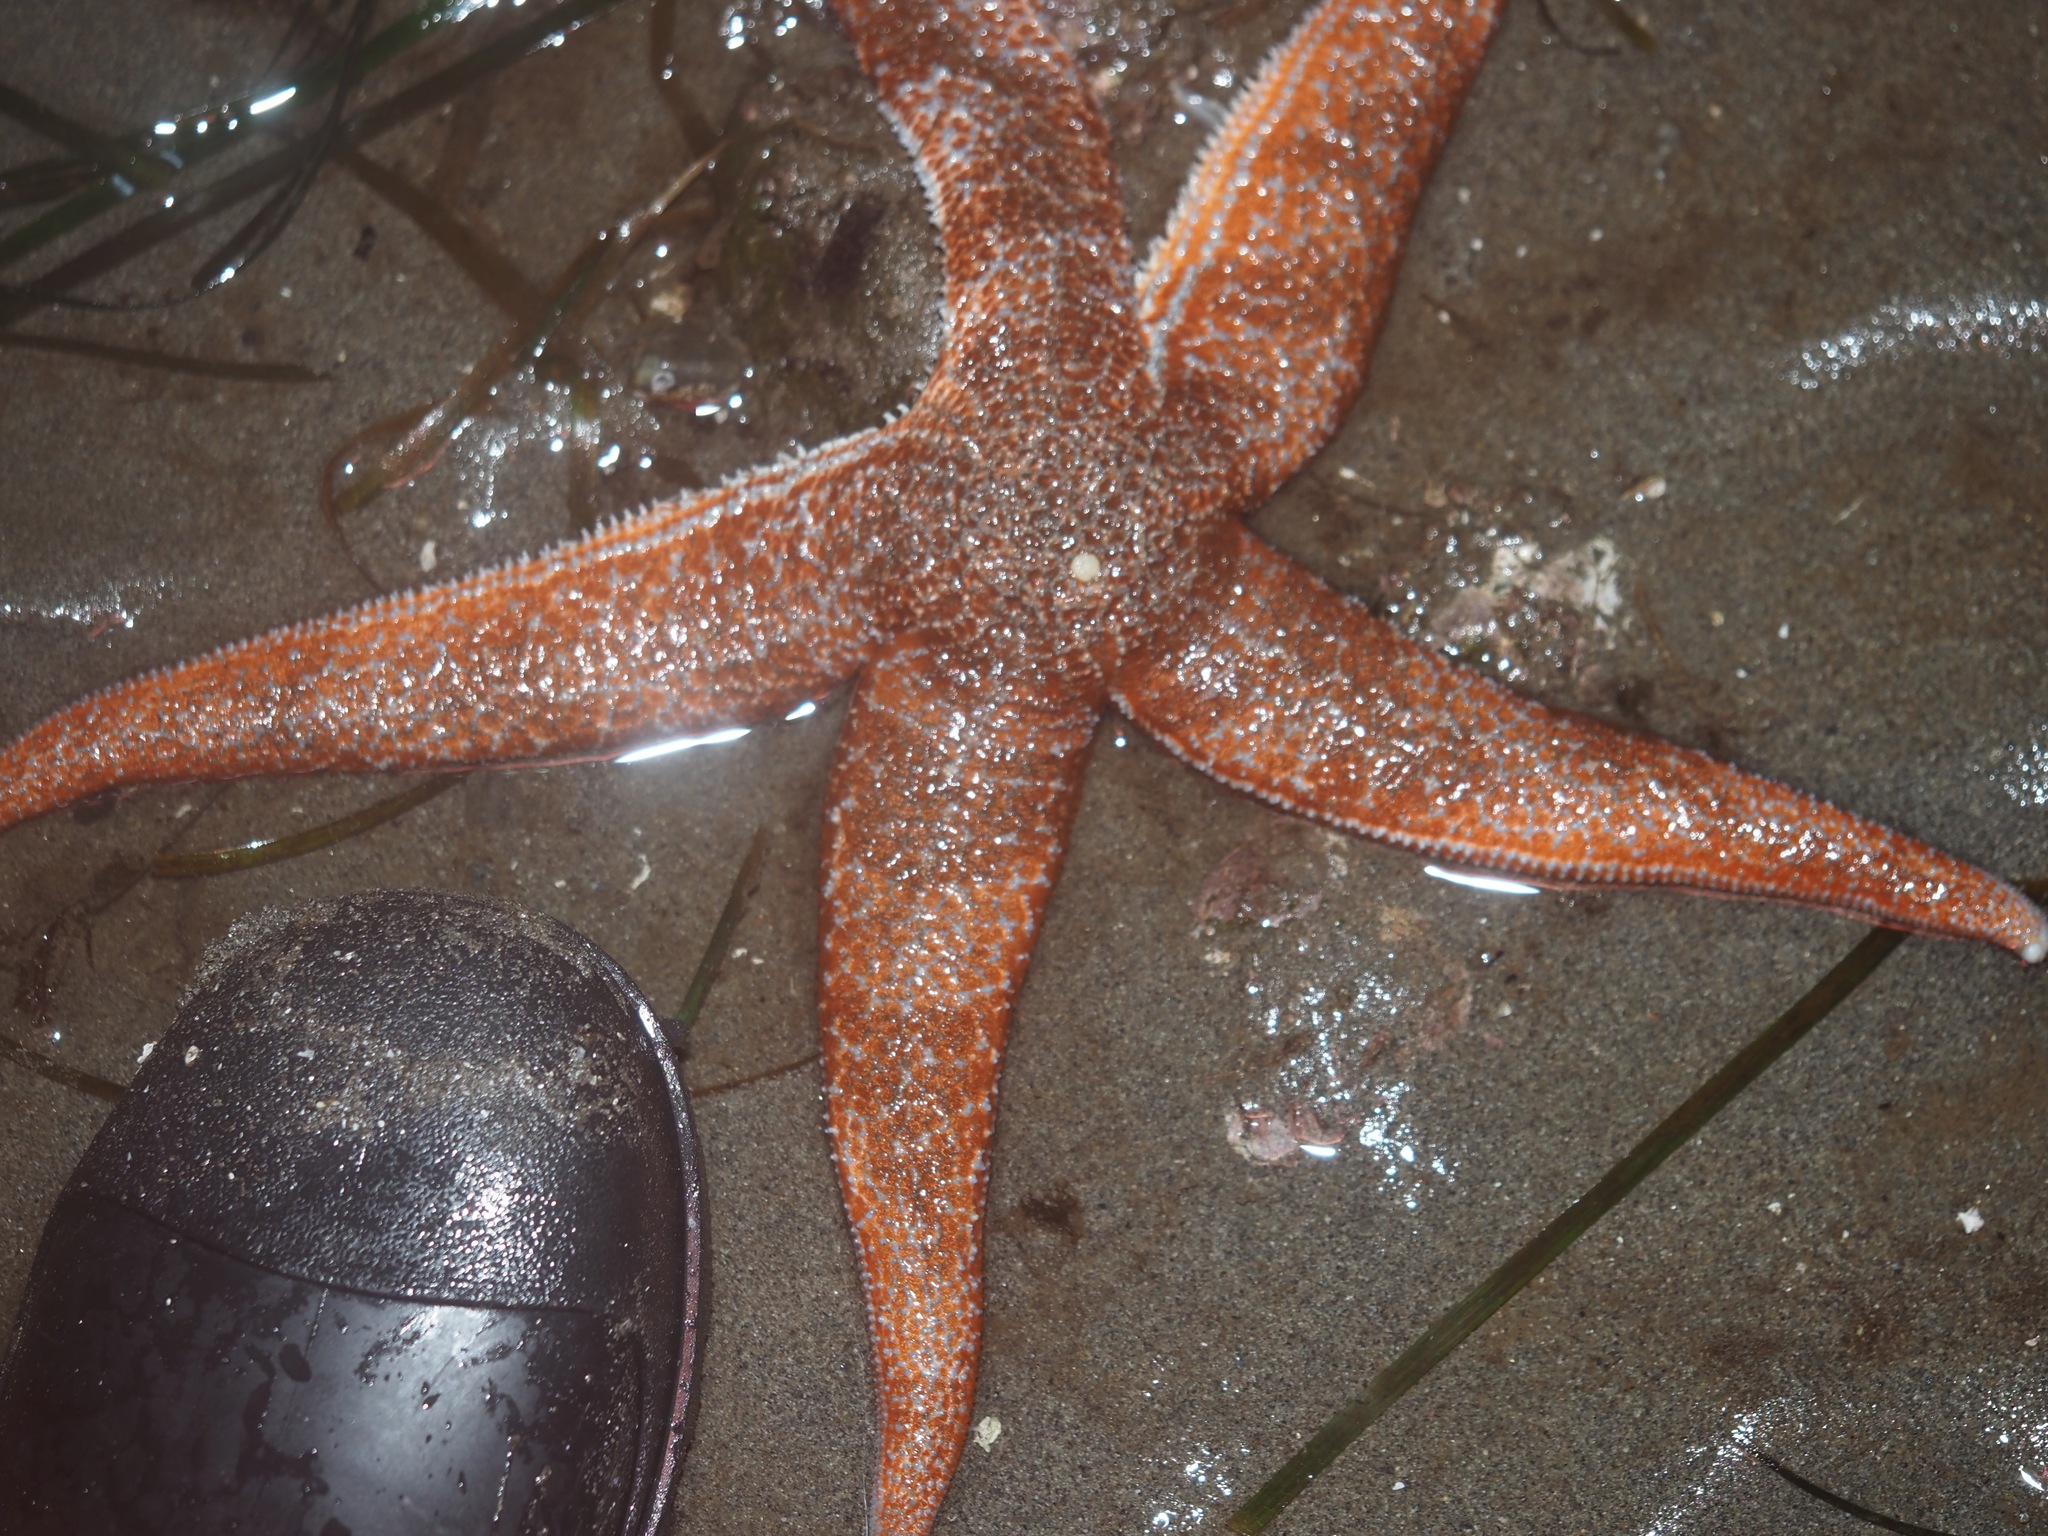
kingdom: Animalia
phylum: Echinodermata
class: Asteroidea
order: Forcipulatida
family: Asteriidae
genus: Evasterias
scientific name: Evasterias troschelii
